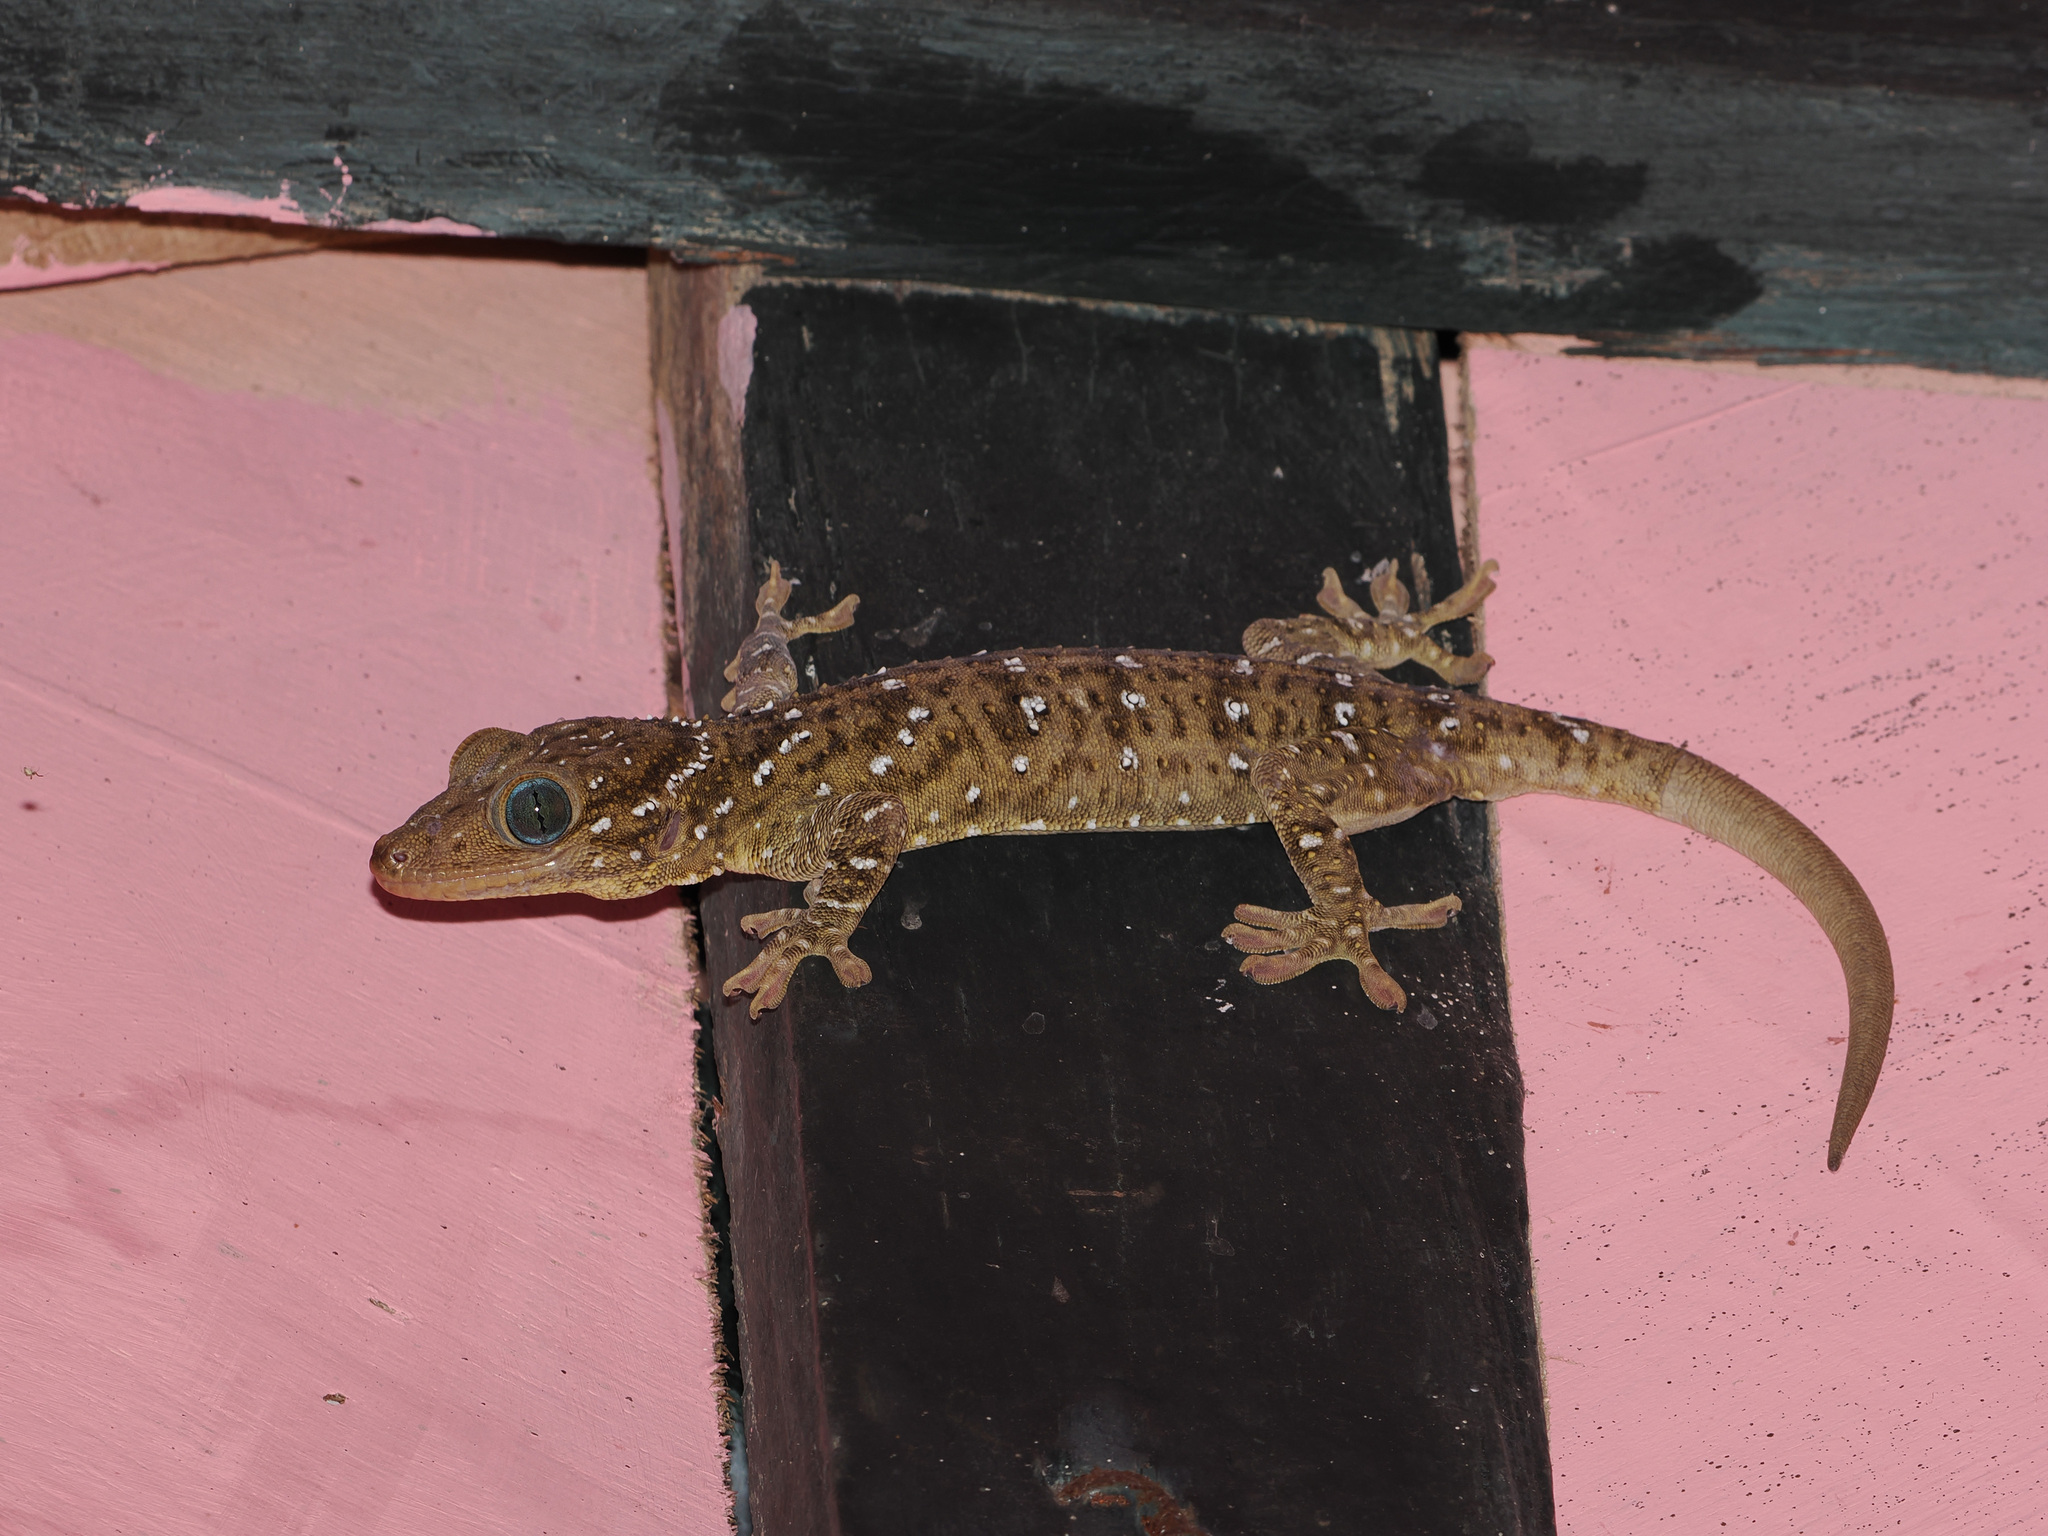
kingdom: Animalia
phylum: Chordata
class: Squamata
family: Gekkonidae
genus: Gekko
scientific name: Gekko smithii
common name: Large forest gecko
